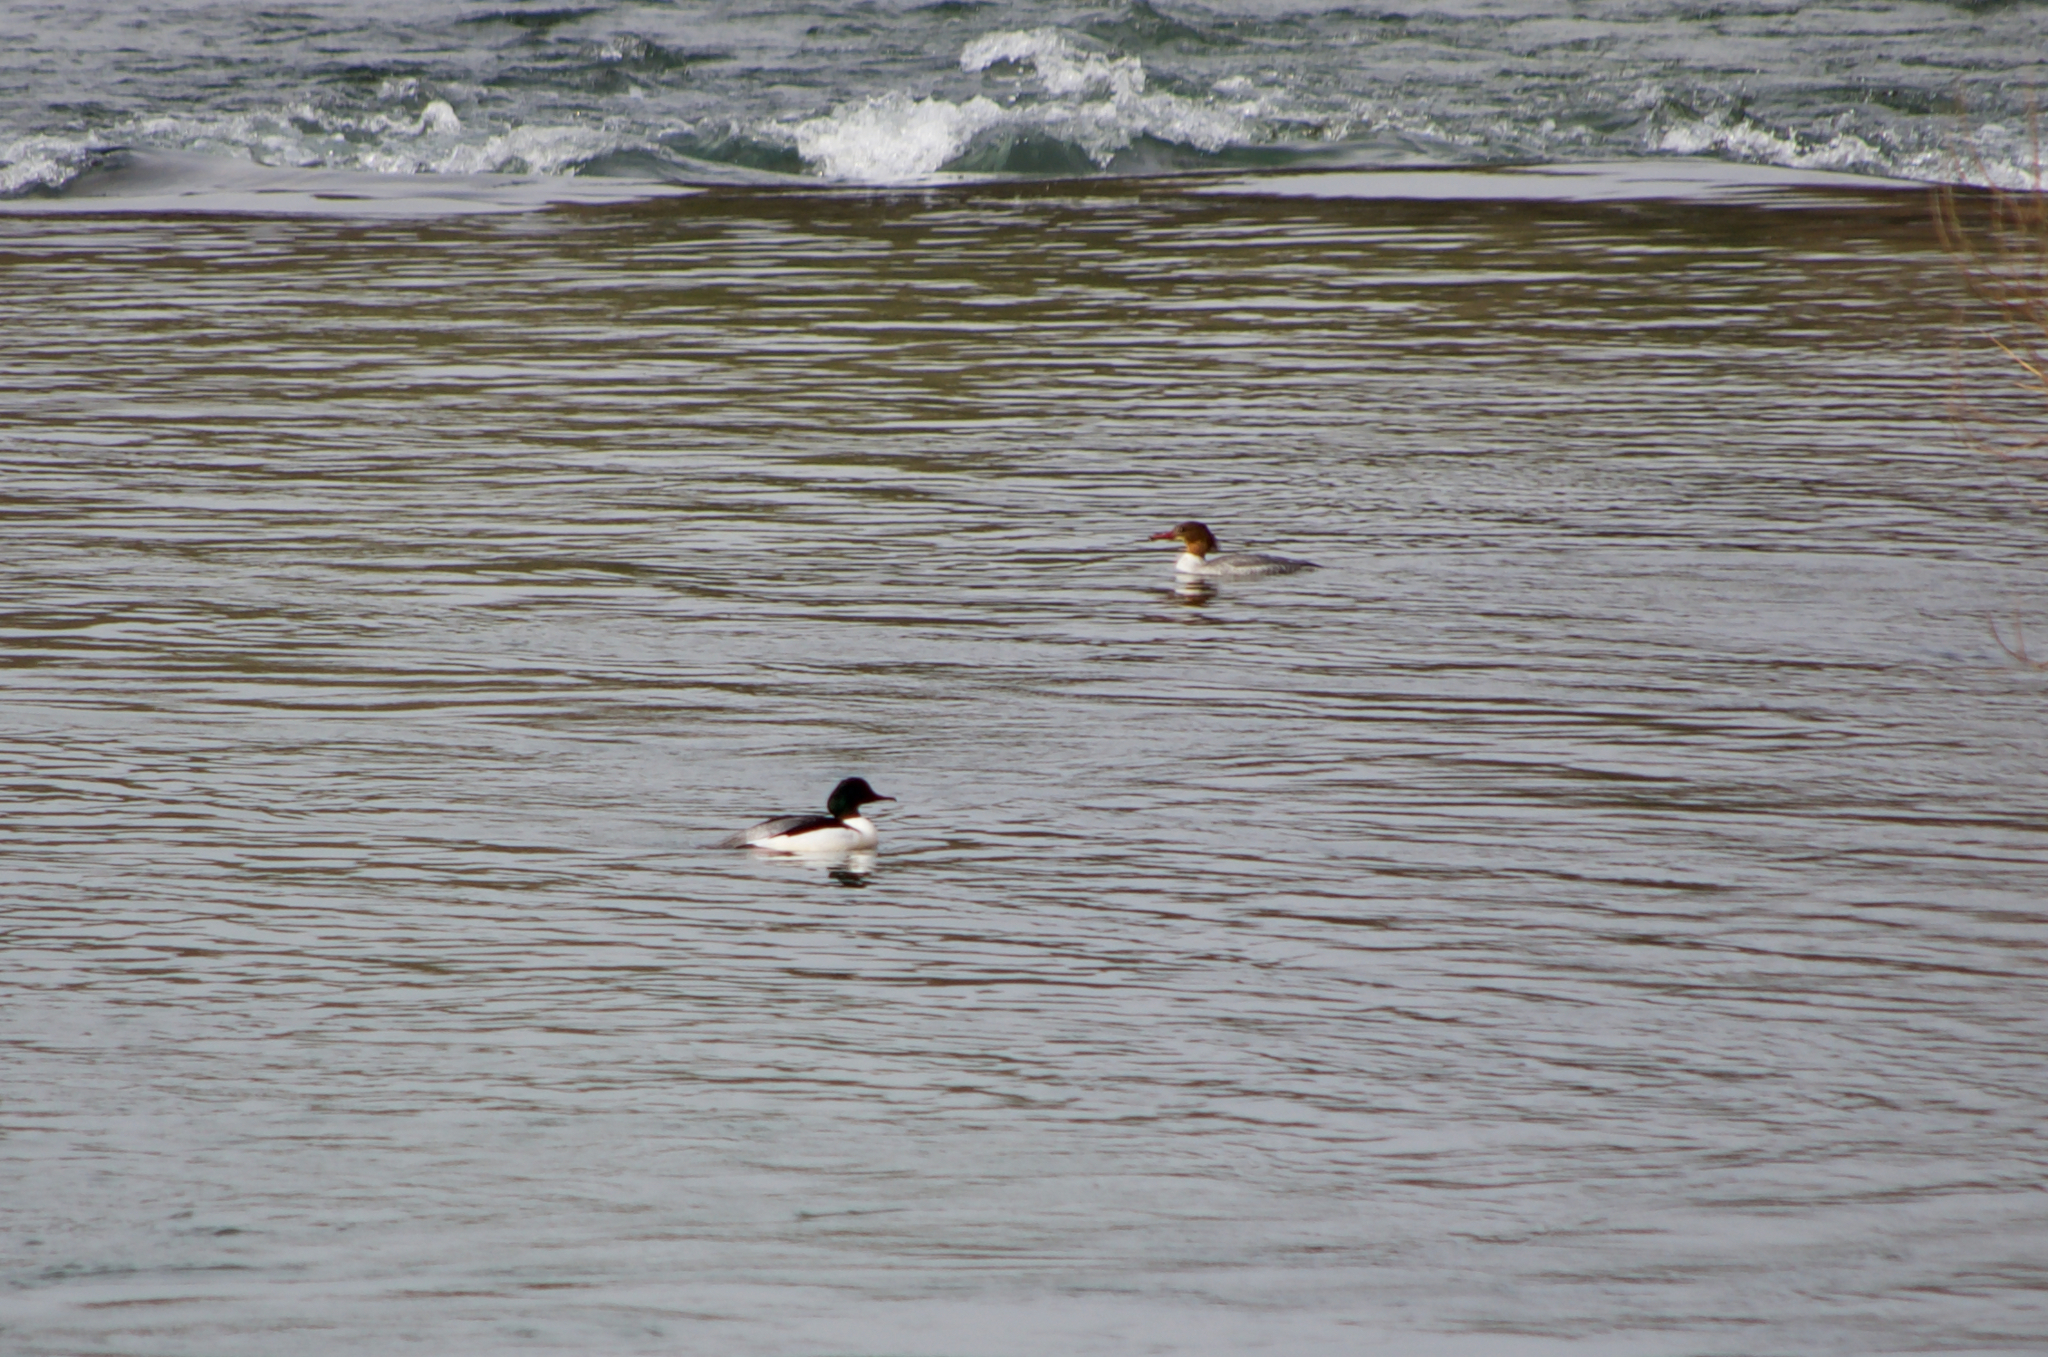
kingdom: Animalia
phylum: Chordata
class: Aves
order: Anseriformes
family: Anatidae
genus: Mergus
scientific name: Mergus merganser
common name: Common merganser
